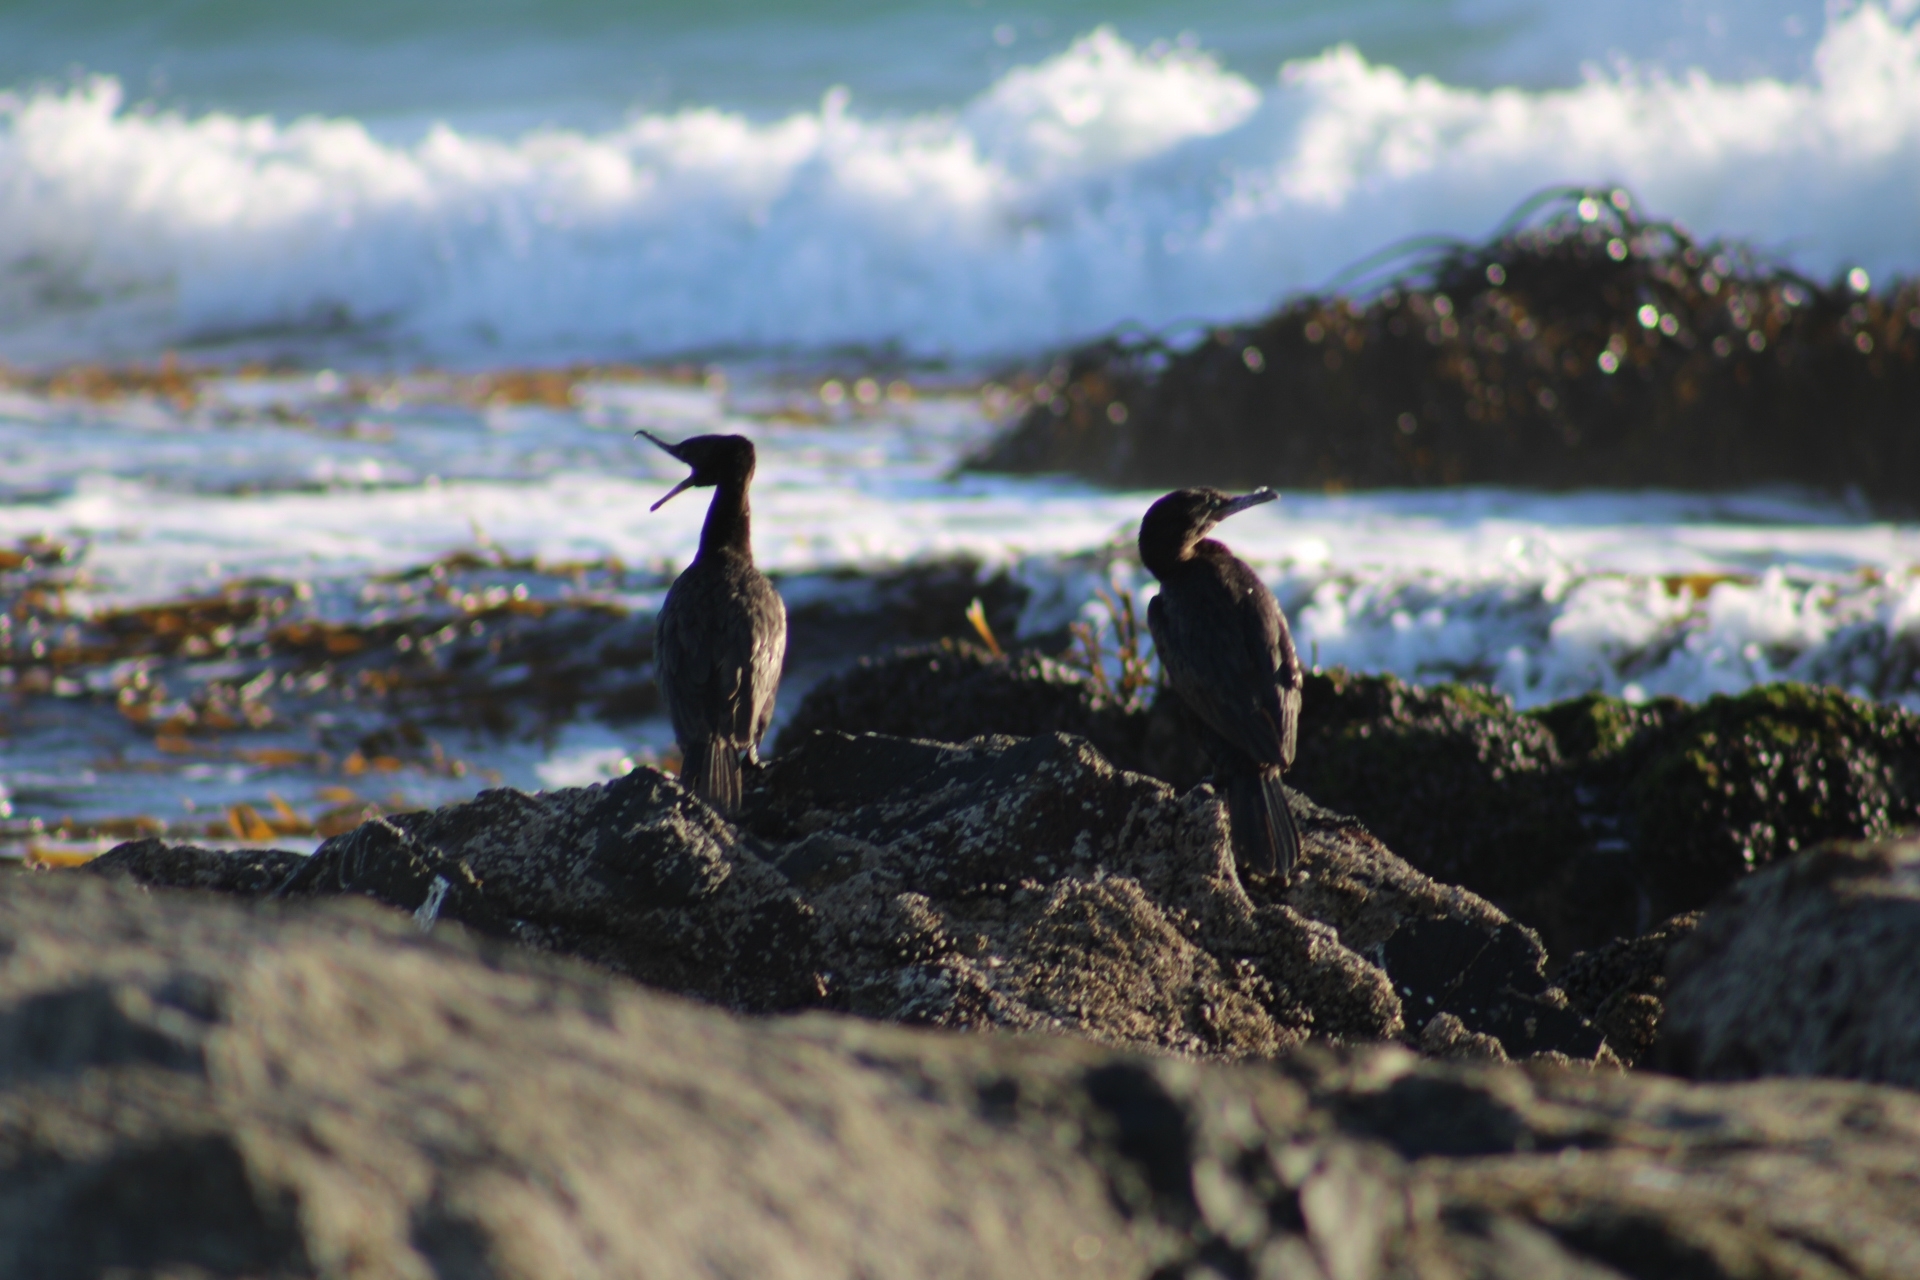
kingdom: Animalia
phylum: Chordata
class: Aves
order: Suliformes
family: Phalacrocoracidae
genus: Phalacrocorax
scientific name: Phalacrocorax brasilianus
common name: Neotropic cormorant
